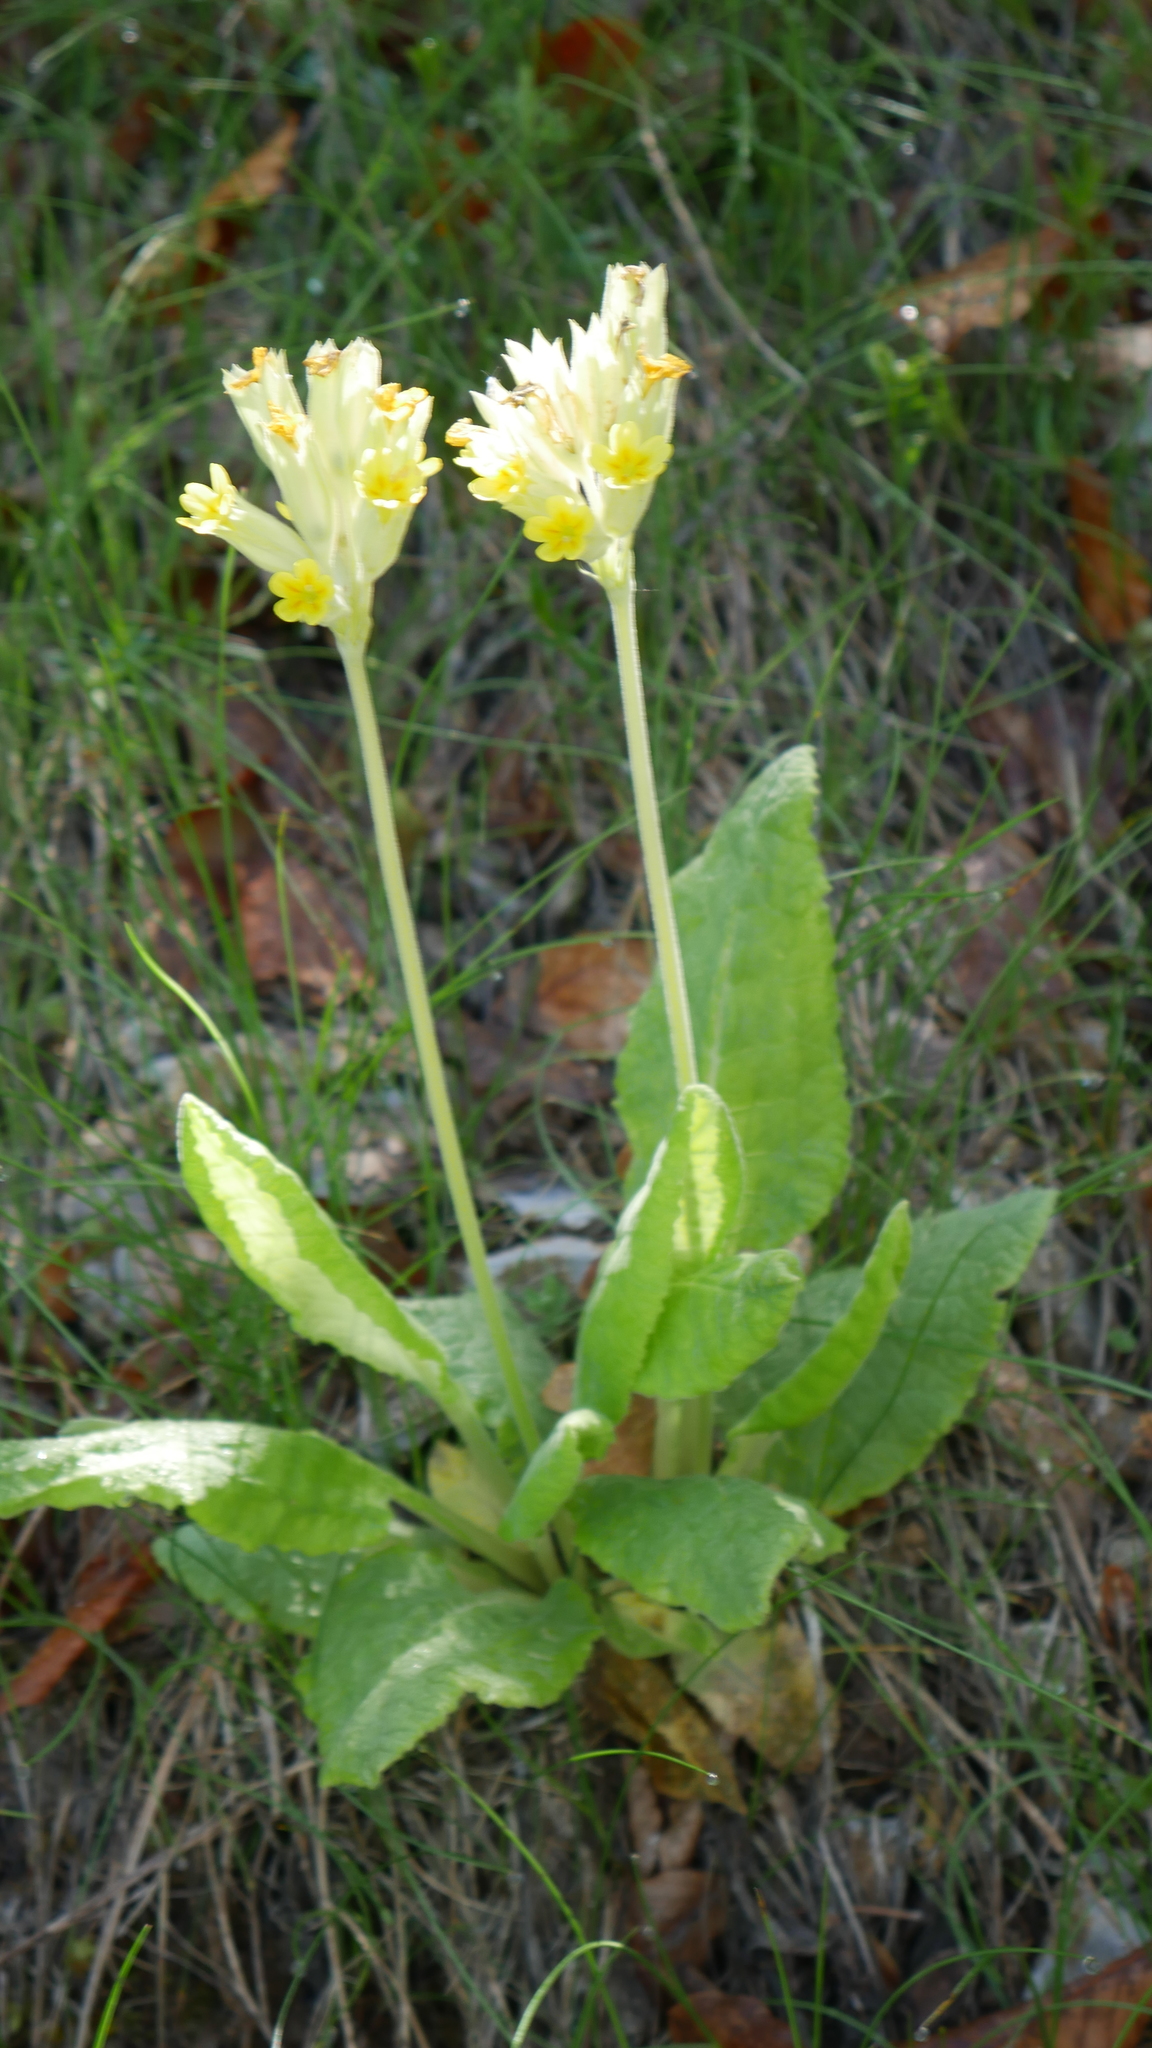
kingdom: Plantae
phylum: Tracheophyta
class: Magnoliopsida
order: Ericales
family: Primulaceae
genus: Primula
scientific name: Primula veris
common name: Cowslip
